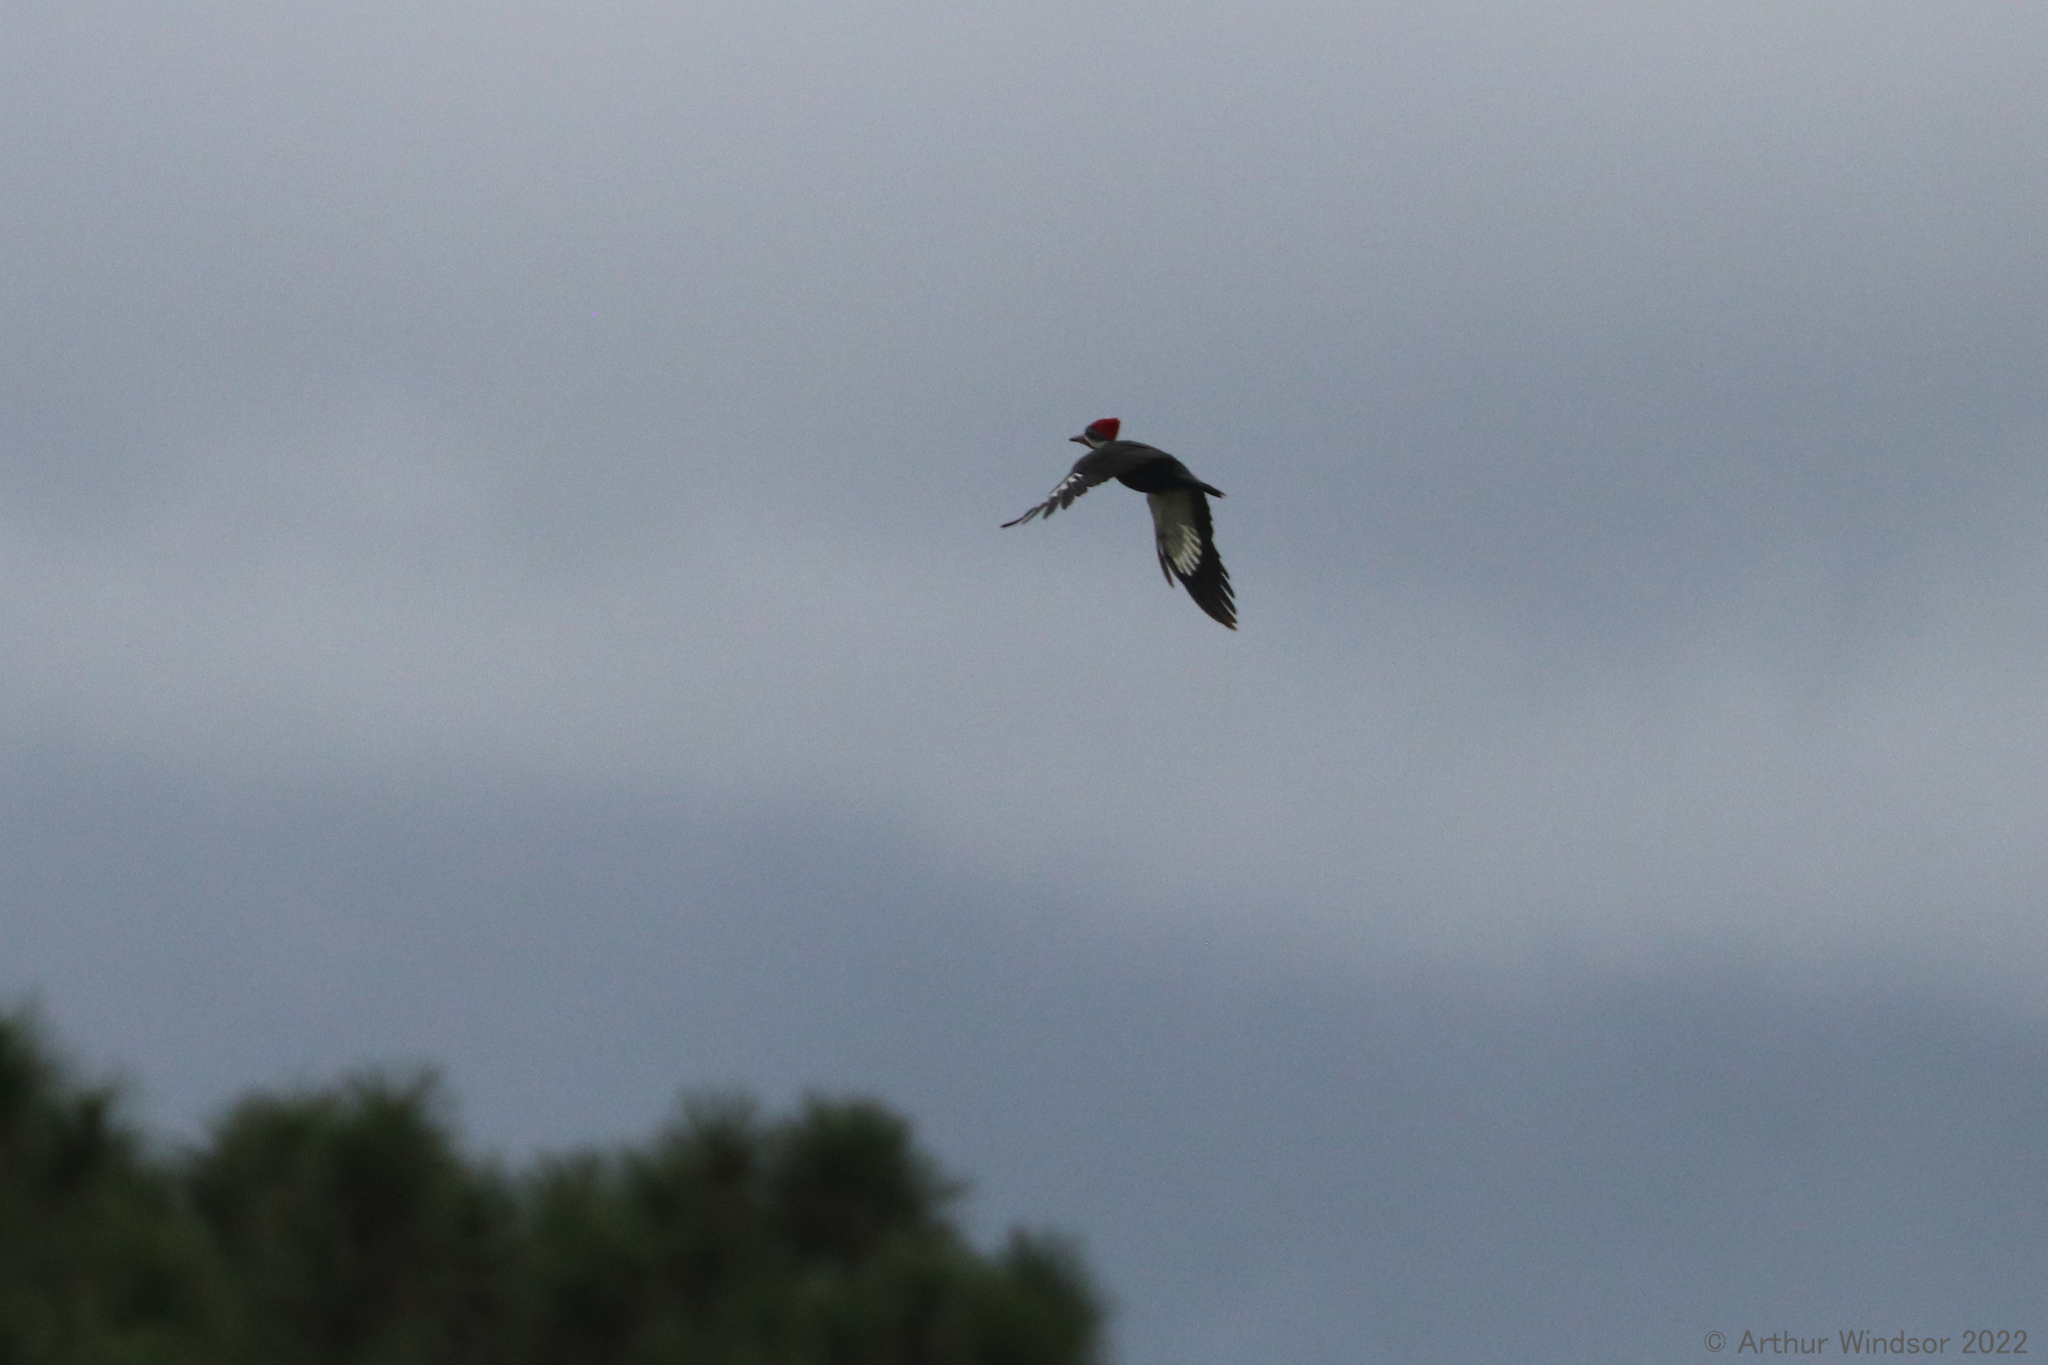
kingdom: Animalia
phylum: Chordata
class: Aves
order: Piciformes
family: Picidae
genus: Dryocopus
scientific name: Dryocopus pileatus
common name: Pileated woodpecker
